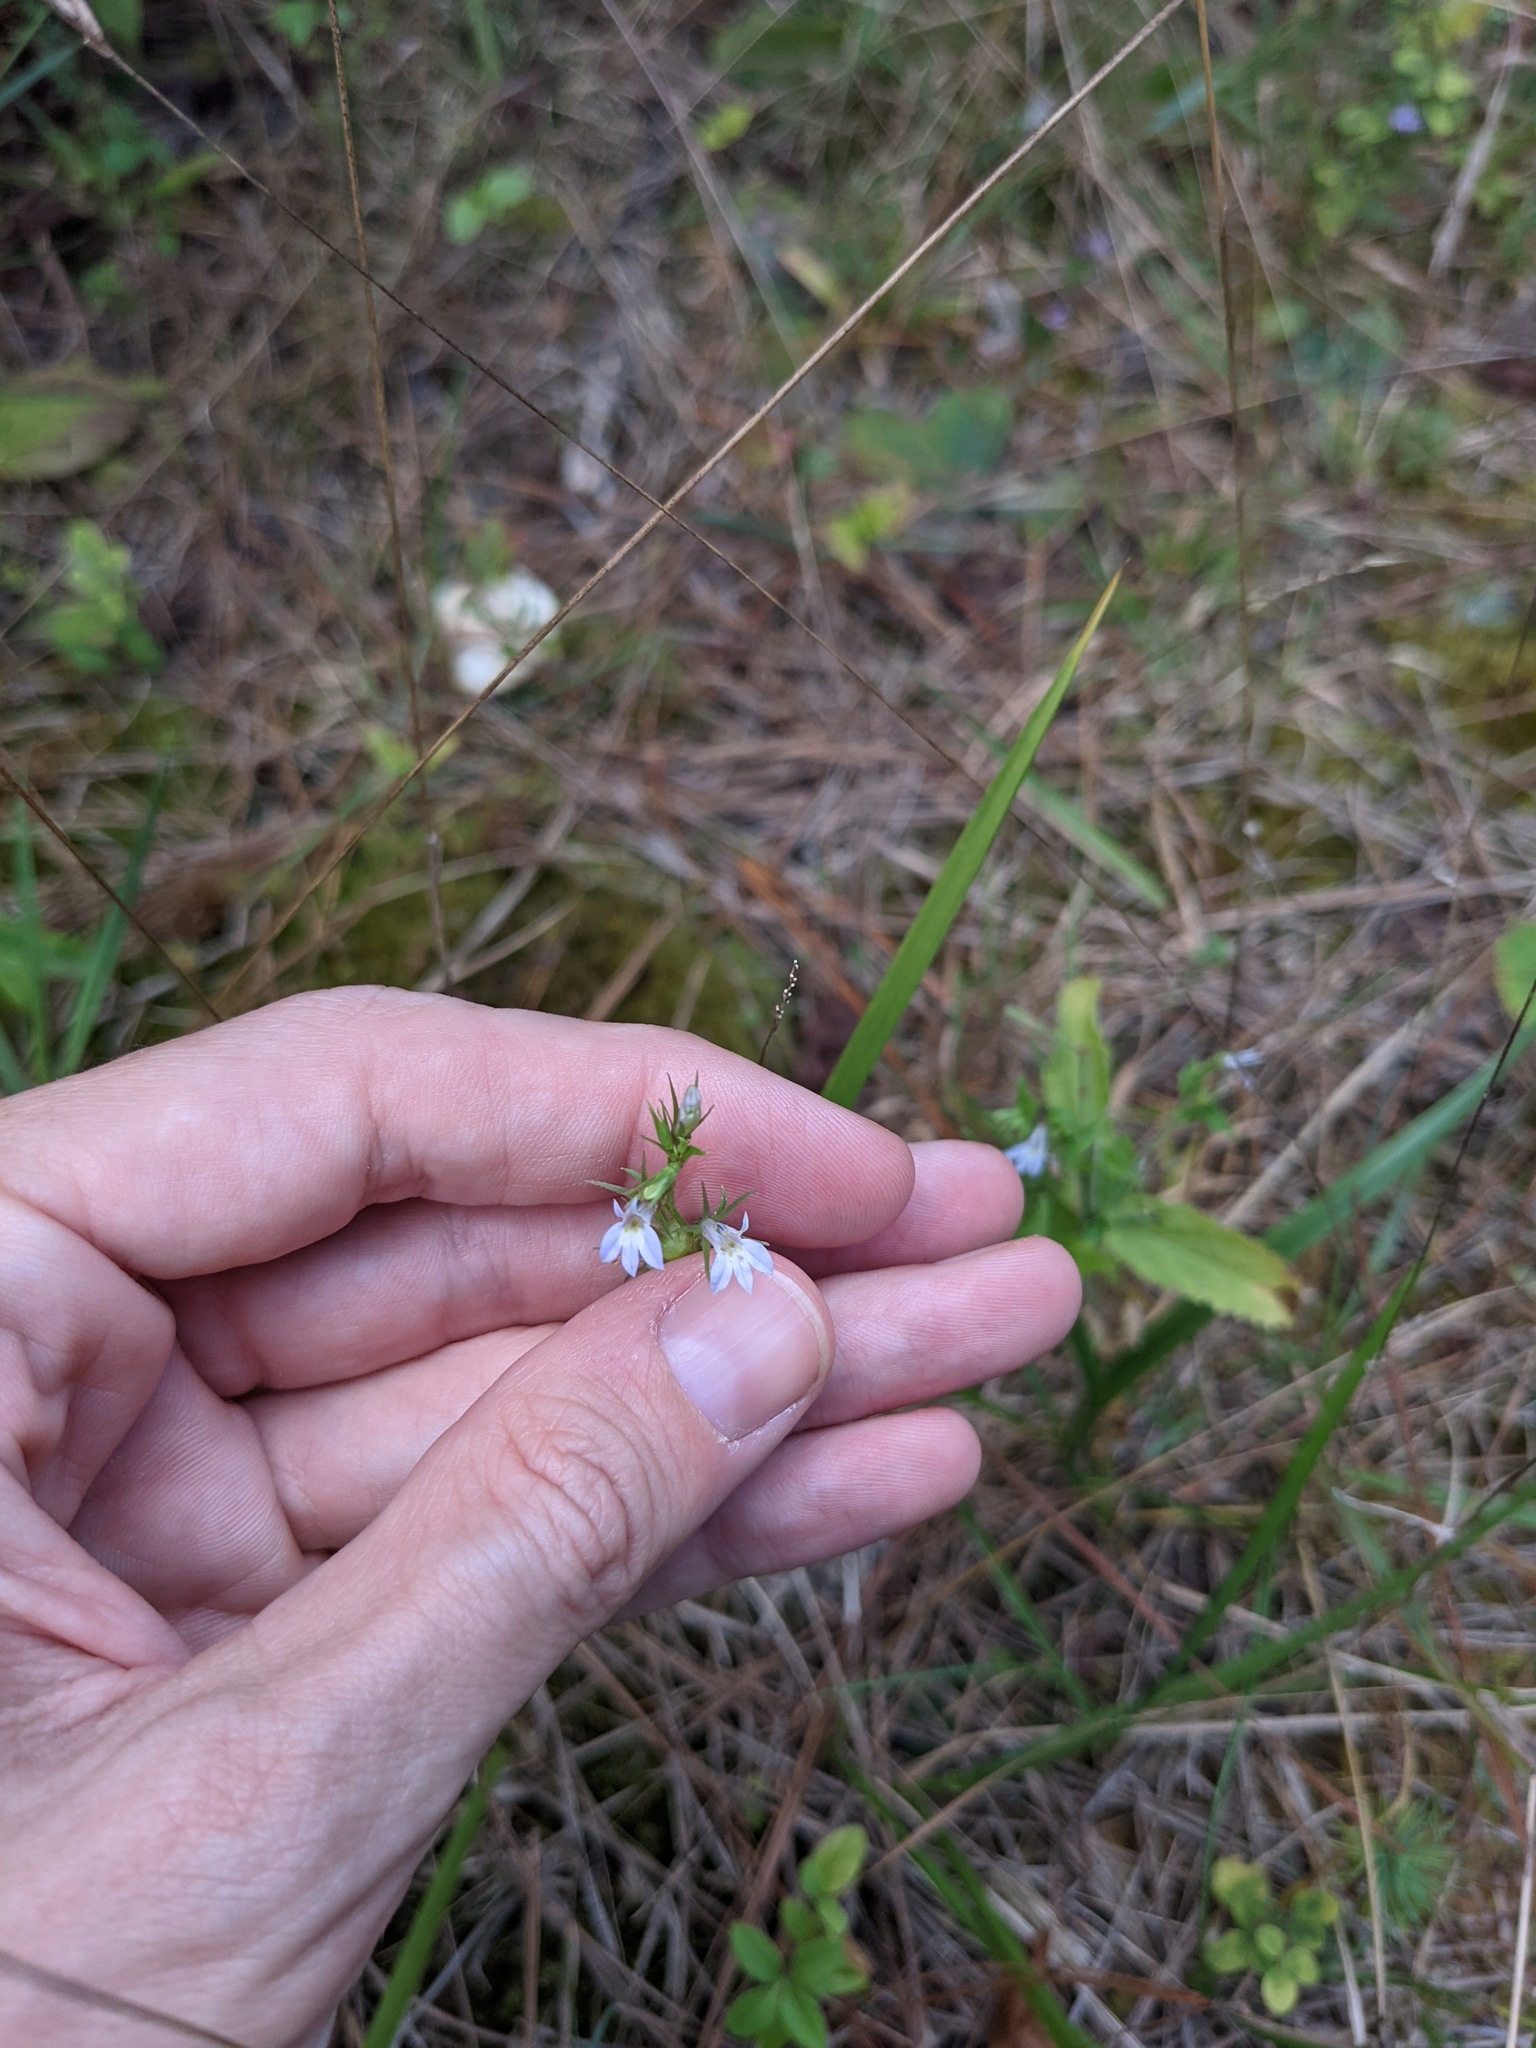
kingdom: Plantae
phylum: Tracheophyta
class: Magnoliopsida
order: Asterales
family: Campanulaceae
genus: Lobelia
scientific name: Lobelia inflata
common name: Indian tobacco
